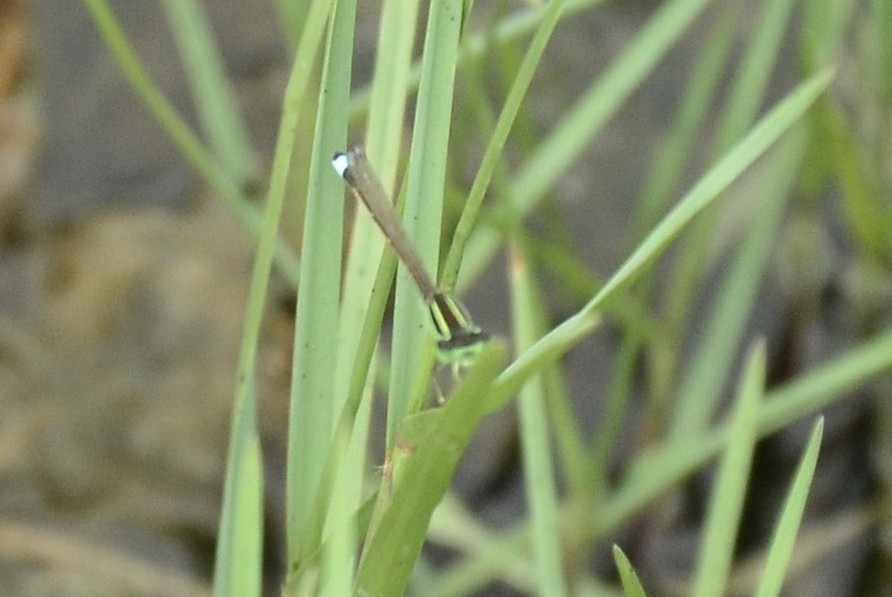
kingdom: Animalia
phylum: Arthropoda
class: Insecta
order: Odonata
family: Coenagrionidae
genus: Ischnura
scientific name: Ischnura senegalensis
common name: Tropical bluetail
